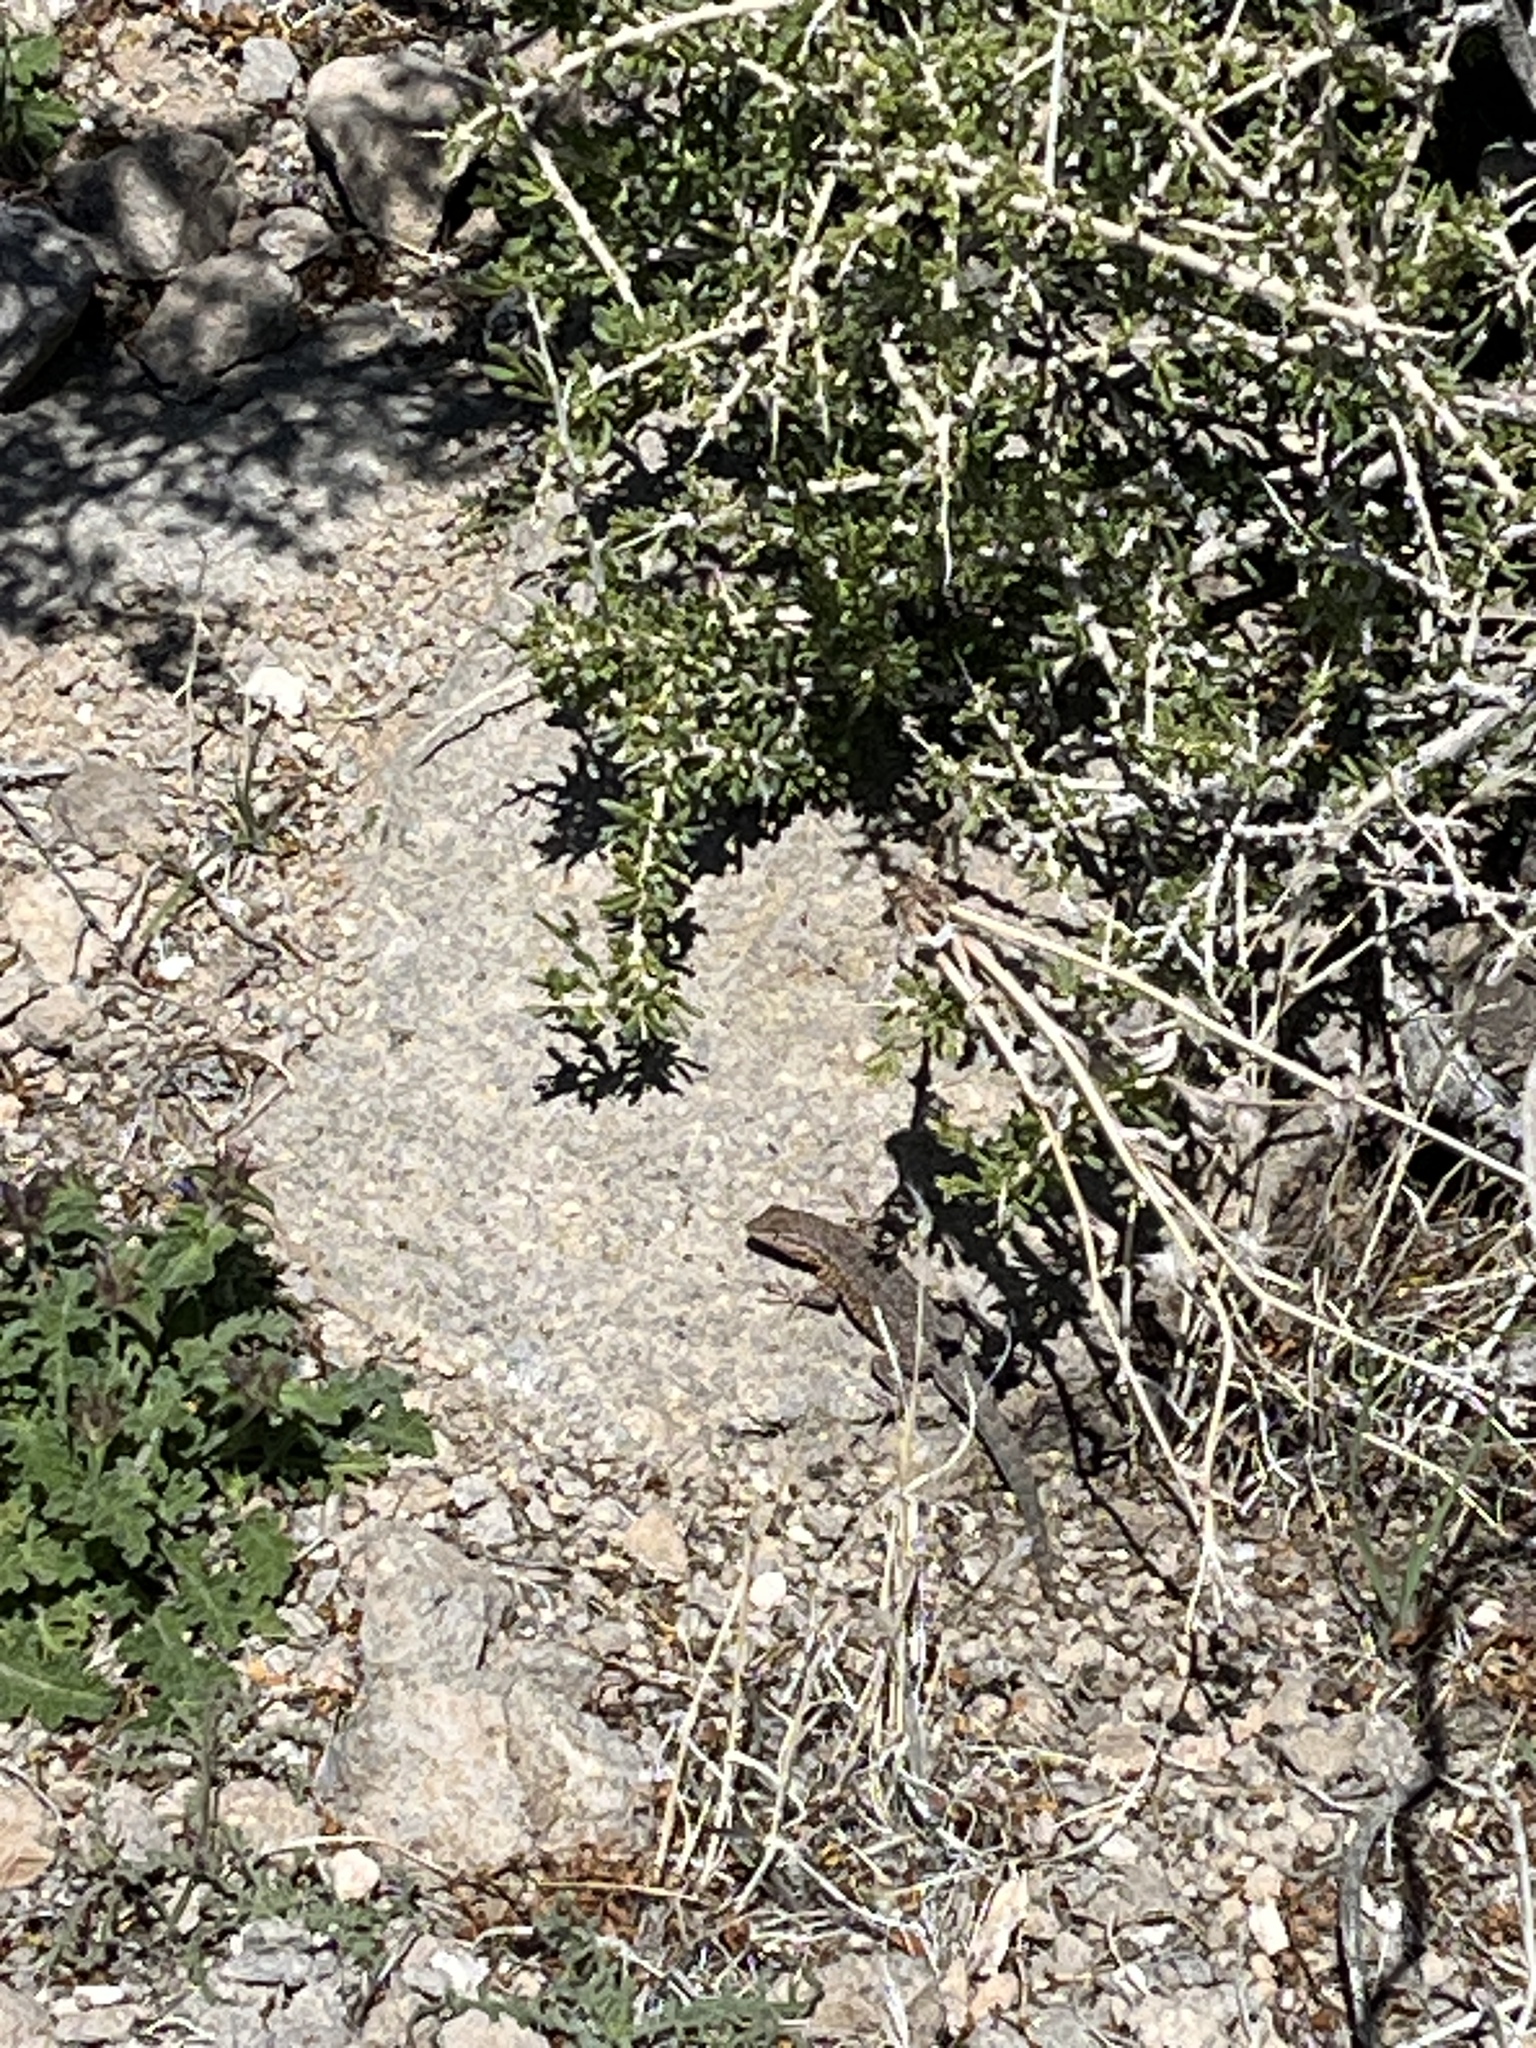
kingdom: Animalia
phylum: Chordata
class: Squamata
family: Phrynosomatidae
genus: Uta
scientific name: Uta stansburiana
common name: Side-blotched lizard
